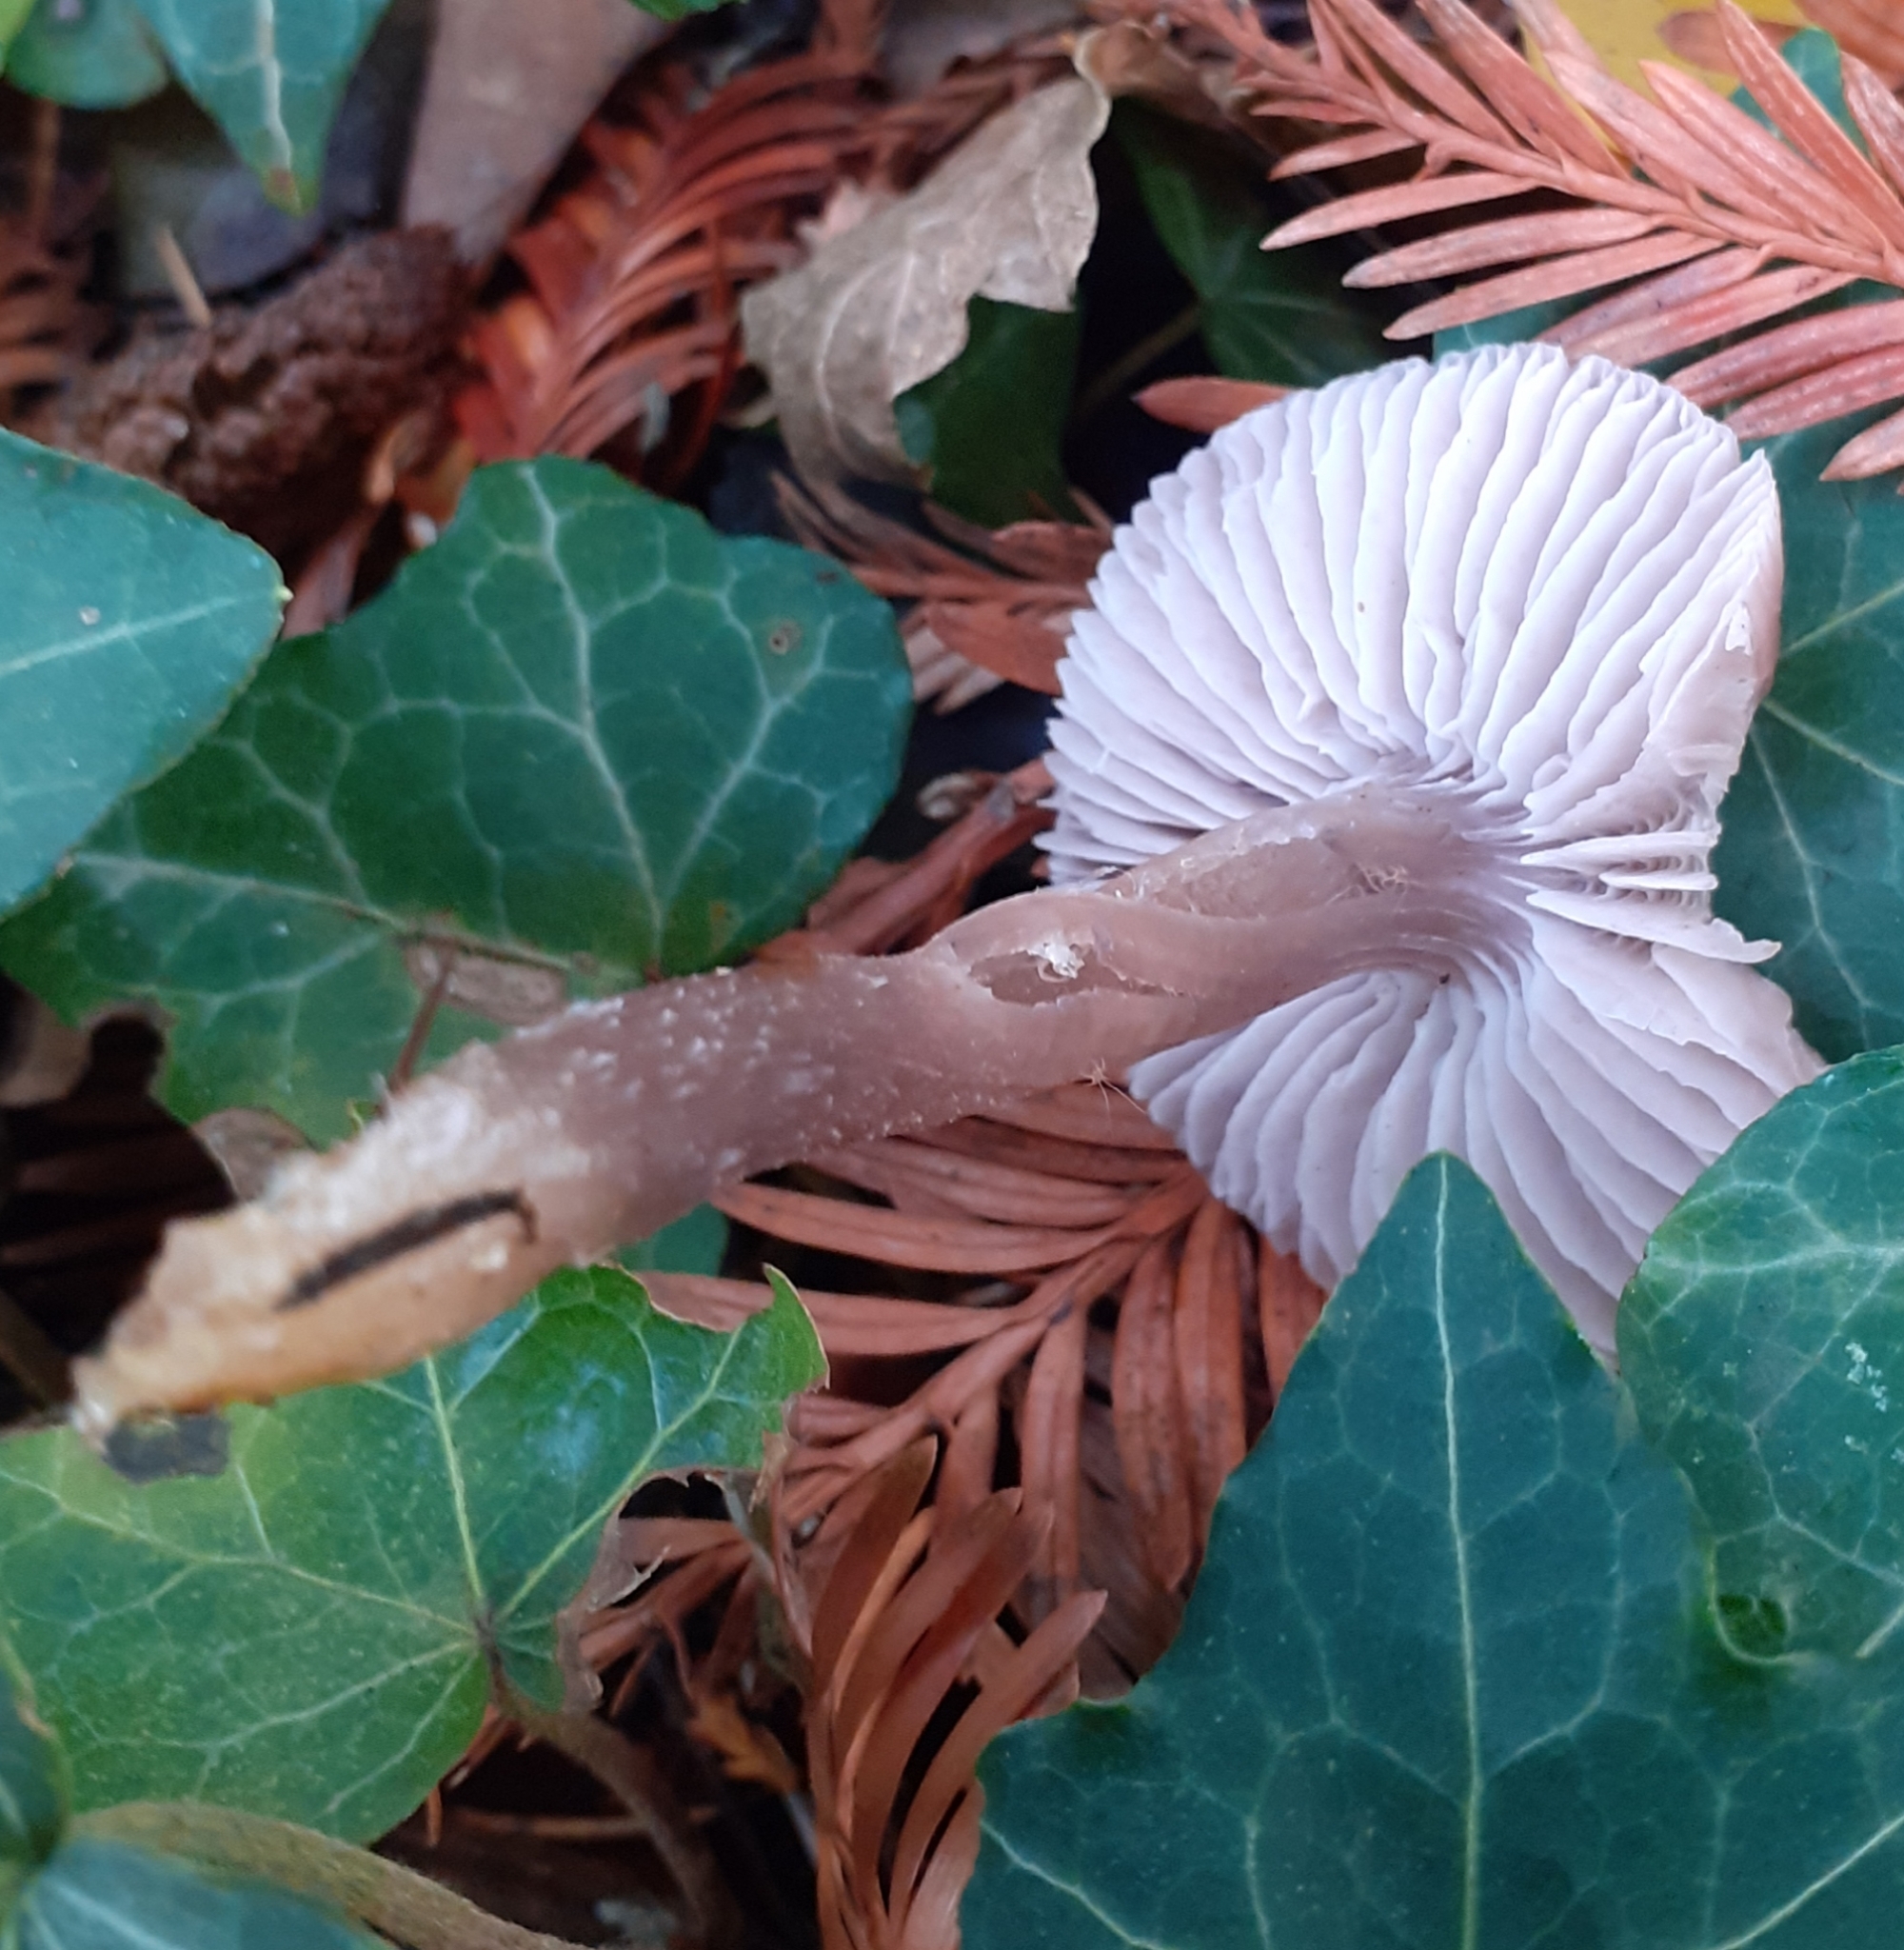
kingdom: Fungi
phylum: Basidiomycota
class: Agaricomycetes
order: Agaricales
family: Mycenaceae
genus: Mycena
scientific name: Mycena pura
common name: Lilac bonnet
